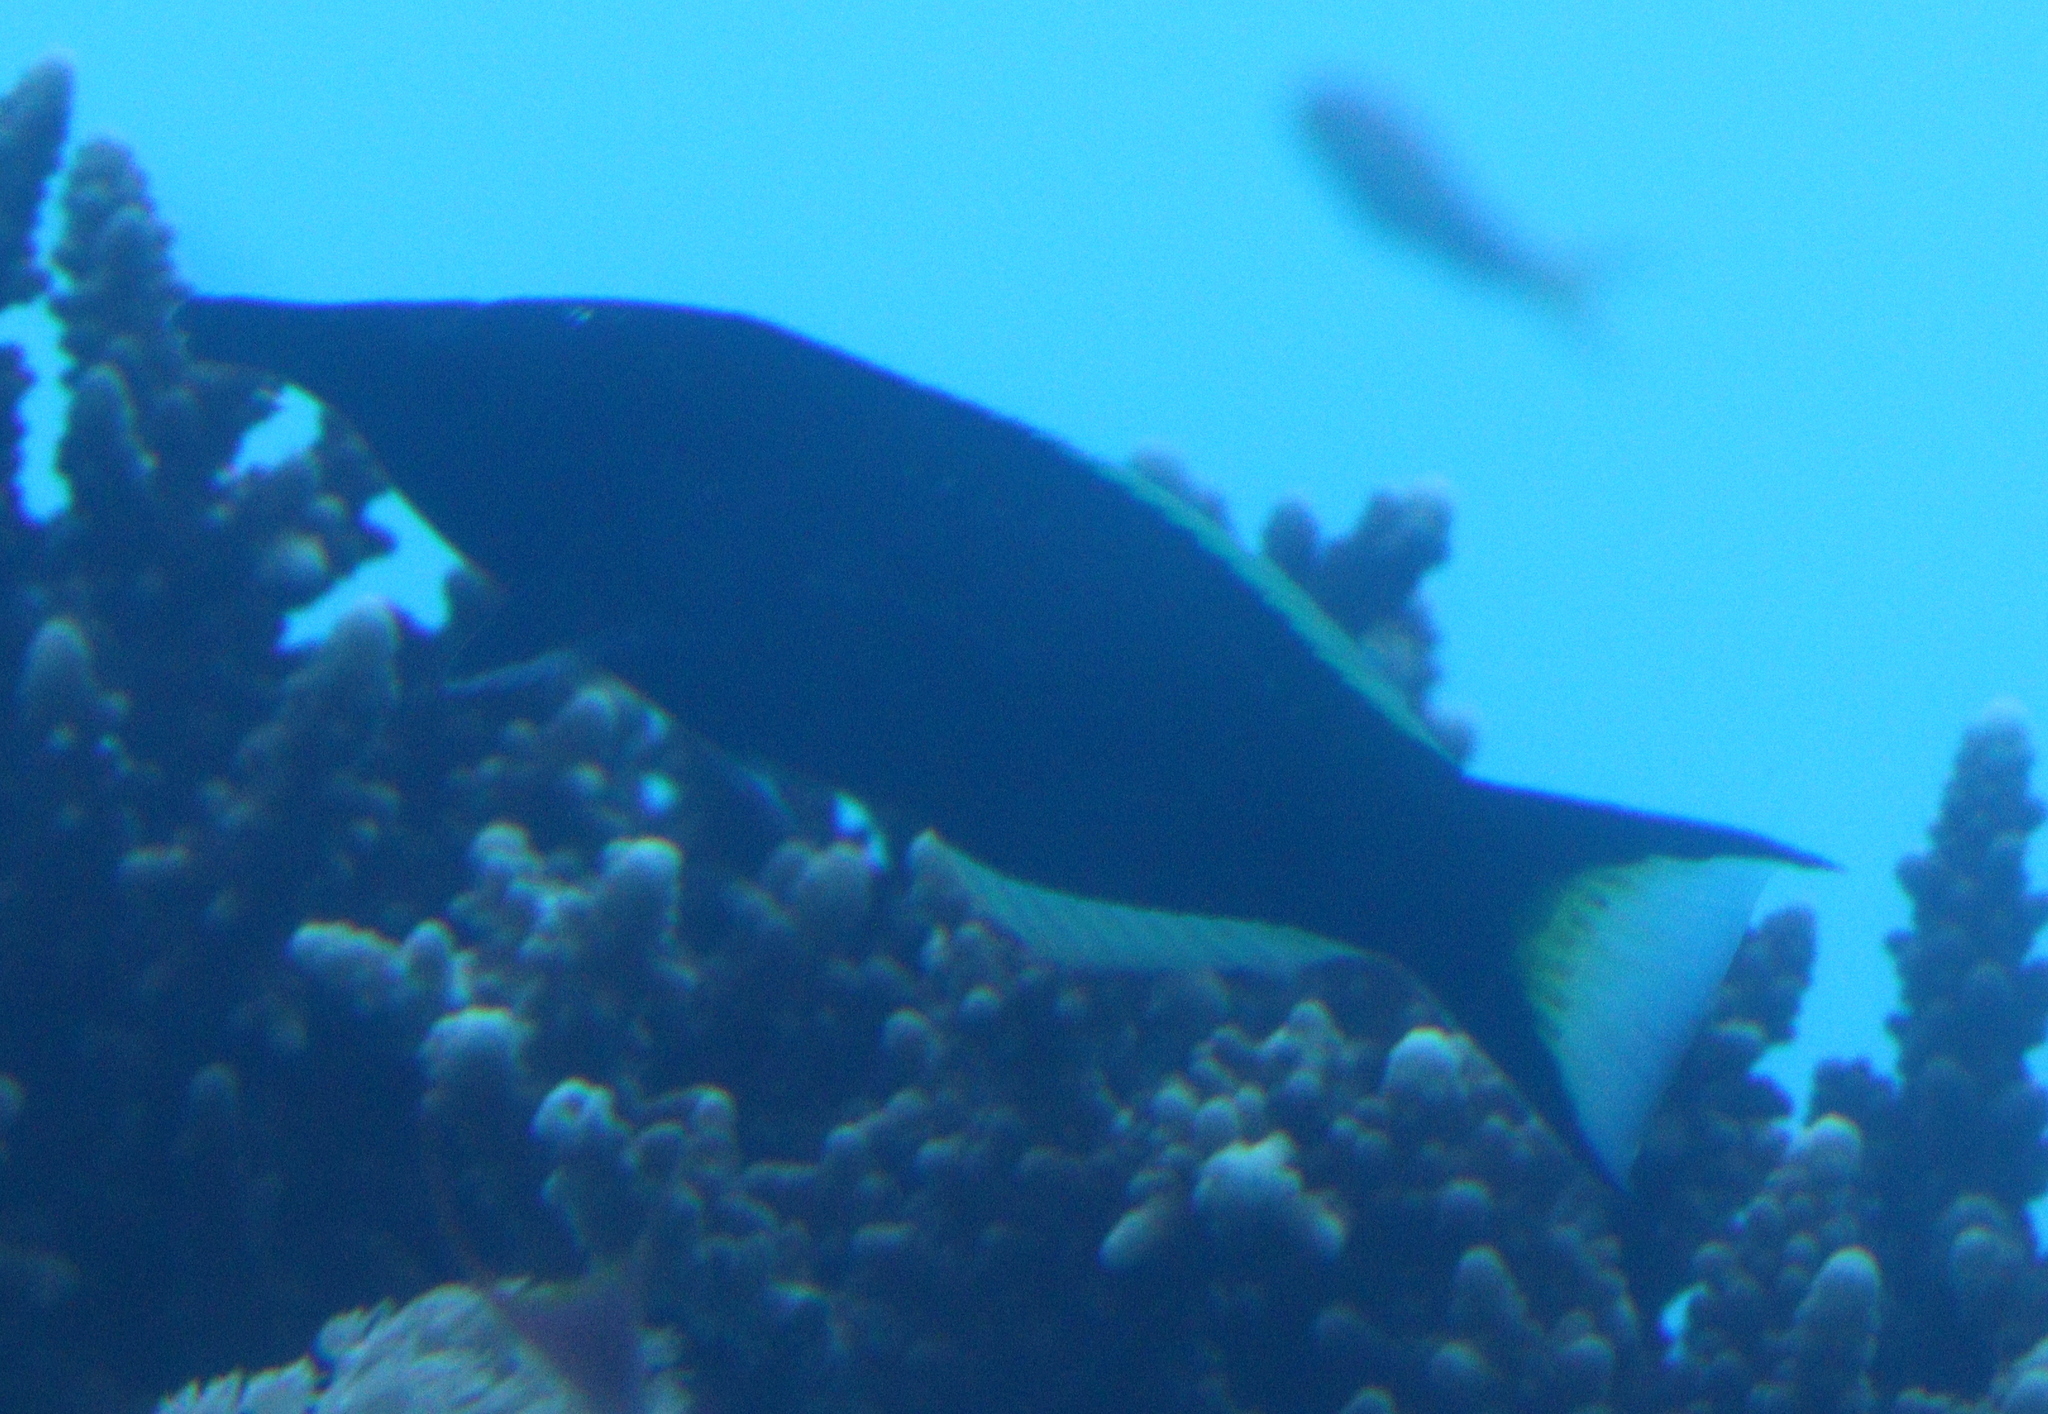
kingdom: Animalia
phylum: Chordata
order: Perciformes
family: Labridae
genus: Gomphosus
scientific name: Gomphosus klunzingeri
